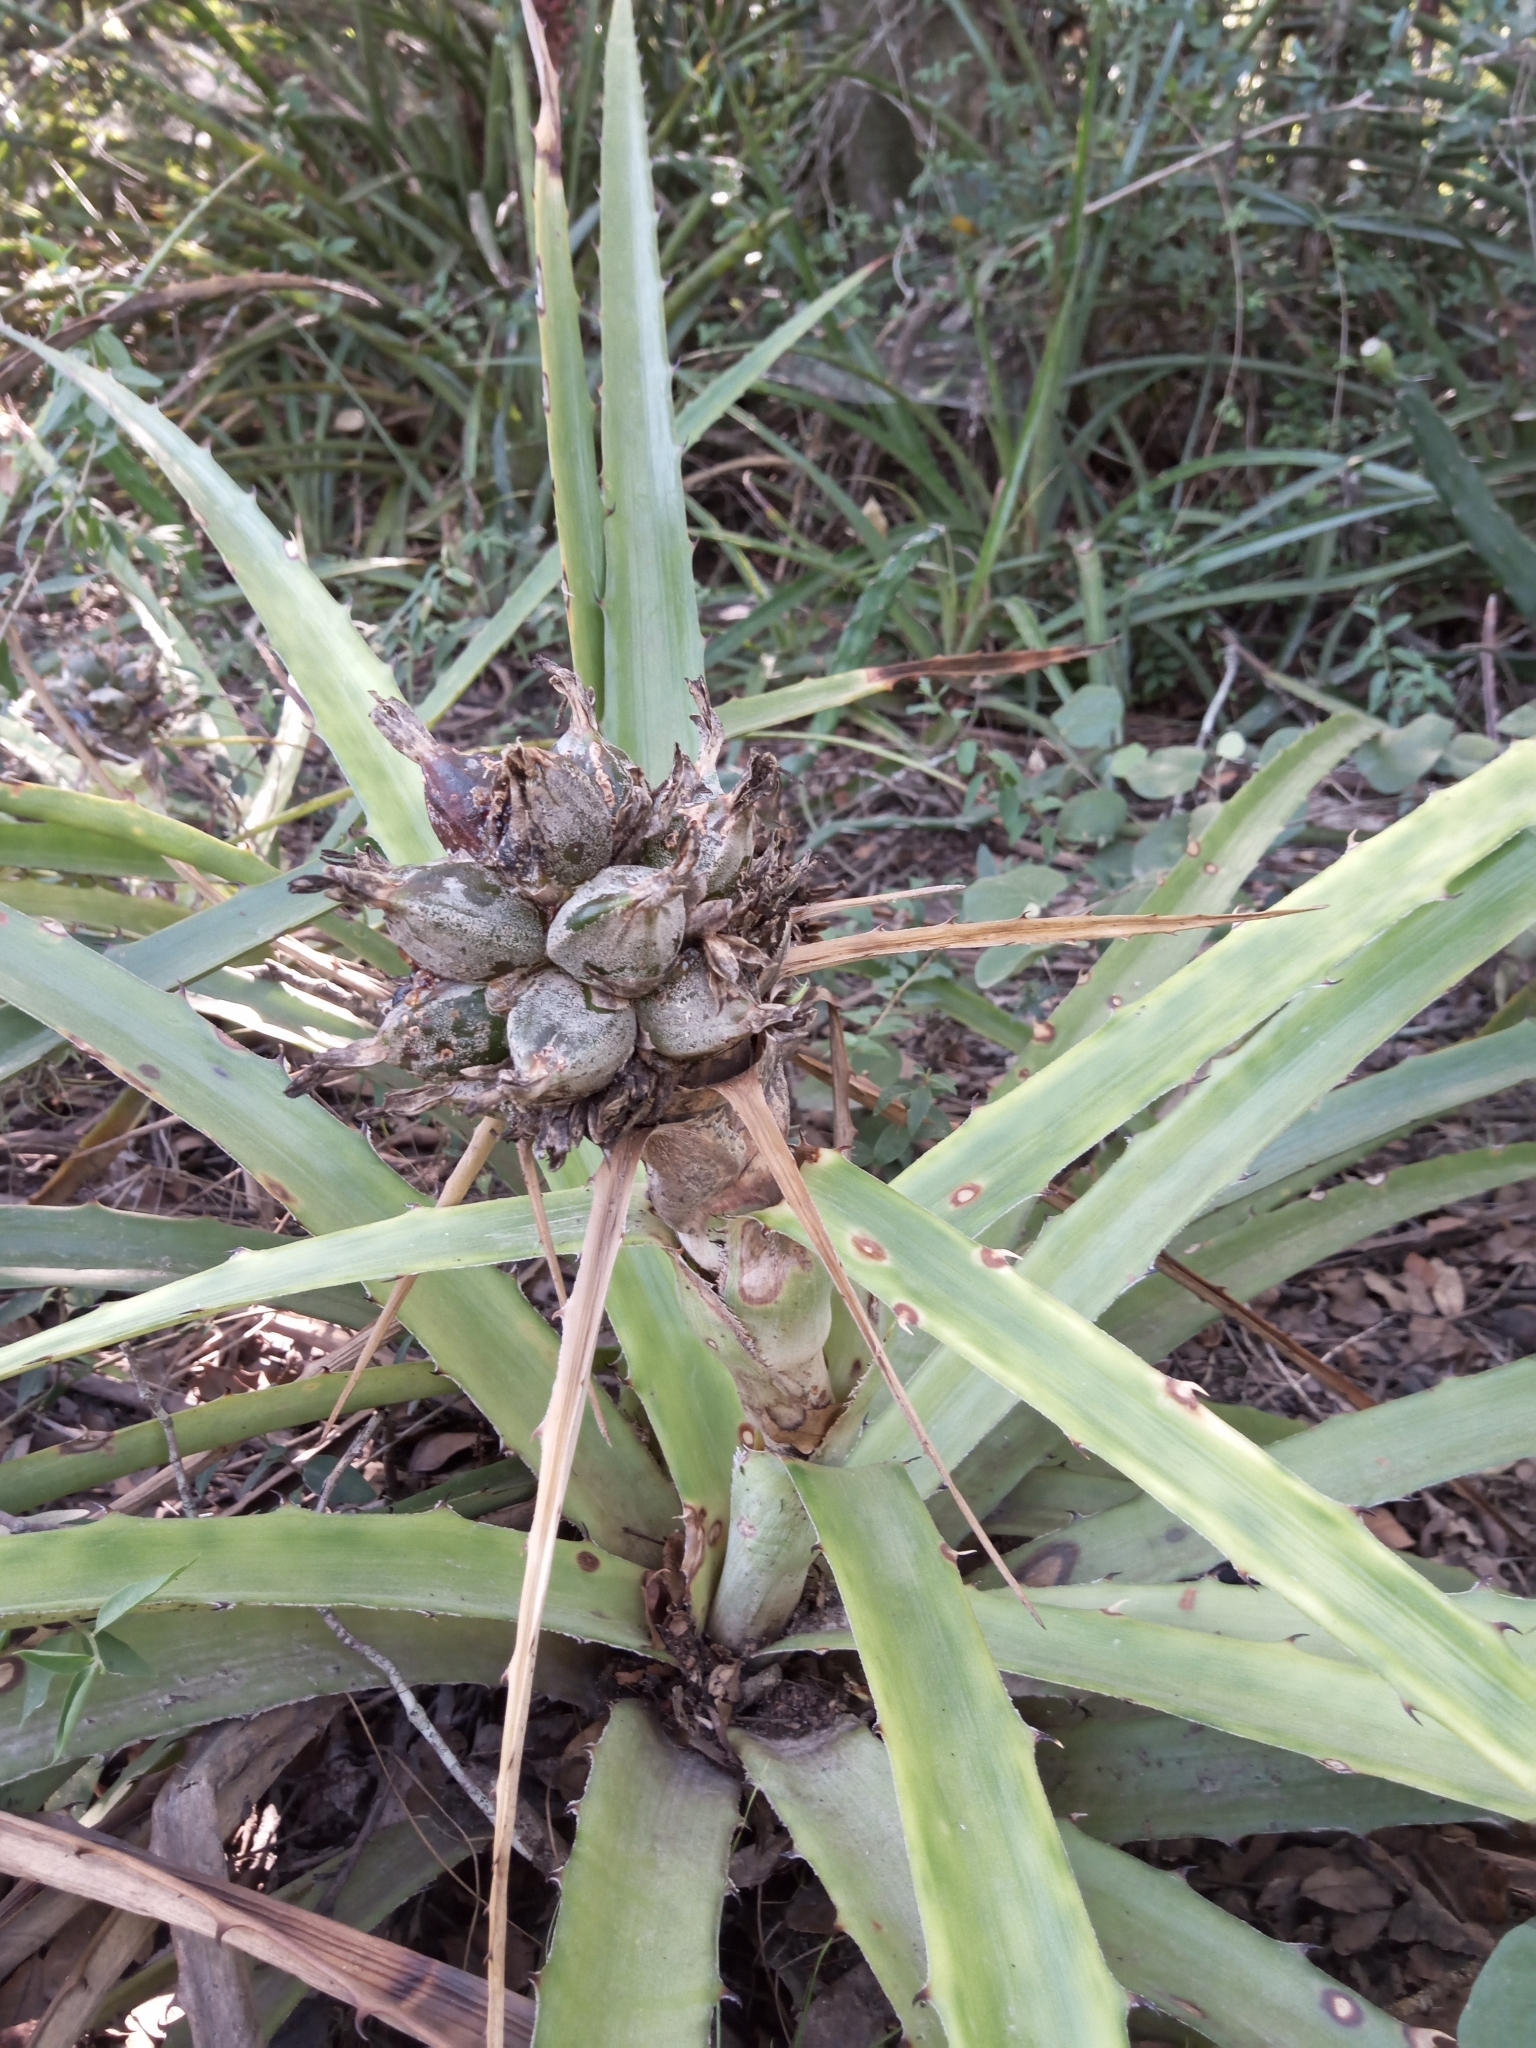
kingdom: Plantae
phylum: Tracheophyta
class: Liliopsida
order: Poales
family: Bromeliaceae
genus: Bromelia
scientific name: Bromelia serra
